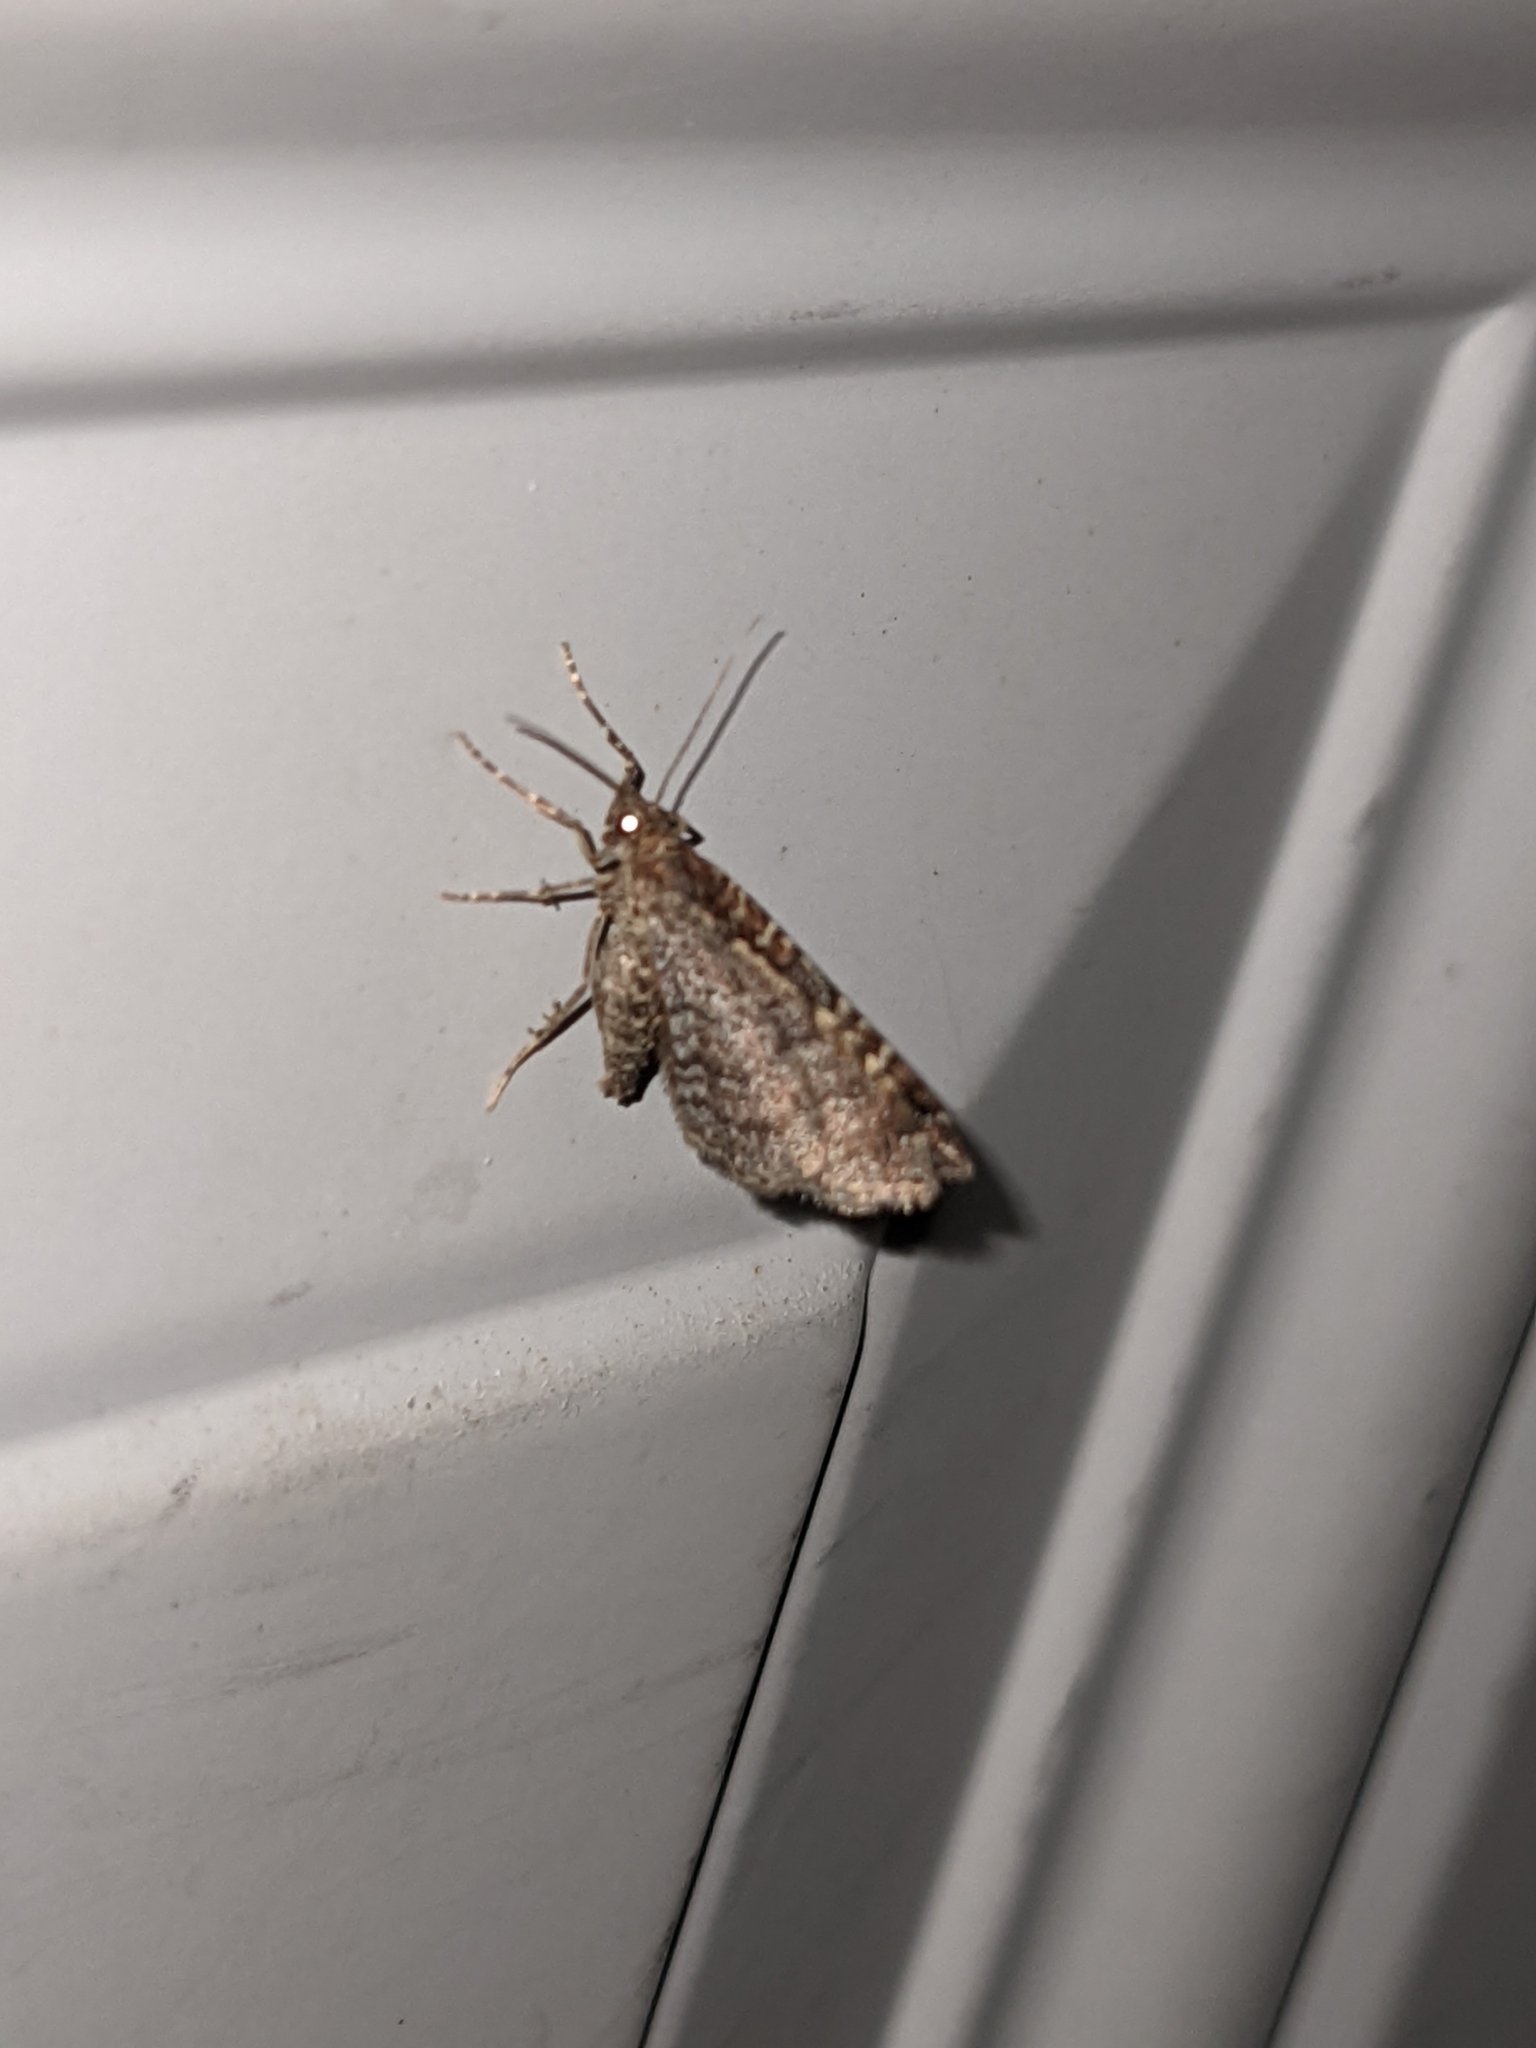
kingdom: Animalia
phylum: Arthropoda
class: Insecta
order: Lepidoptera
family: Geometridae
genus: Orthonama
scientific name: Orthonama obstipata
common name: The gem
